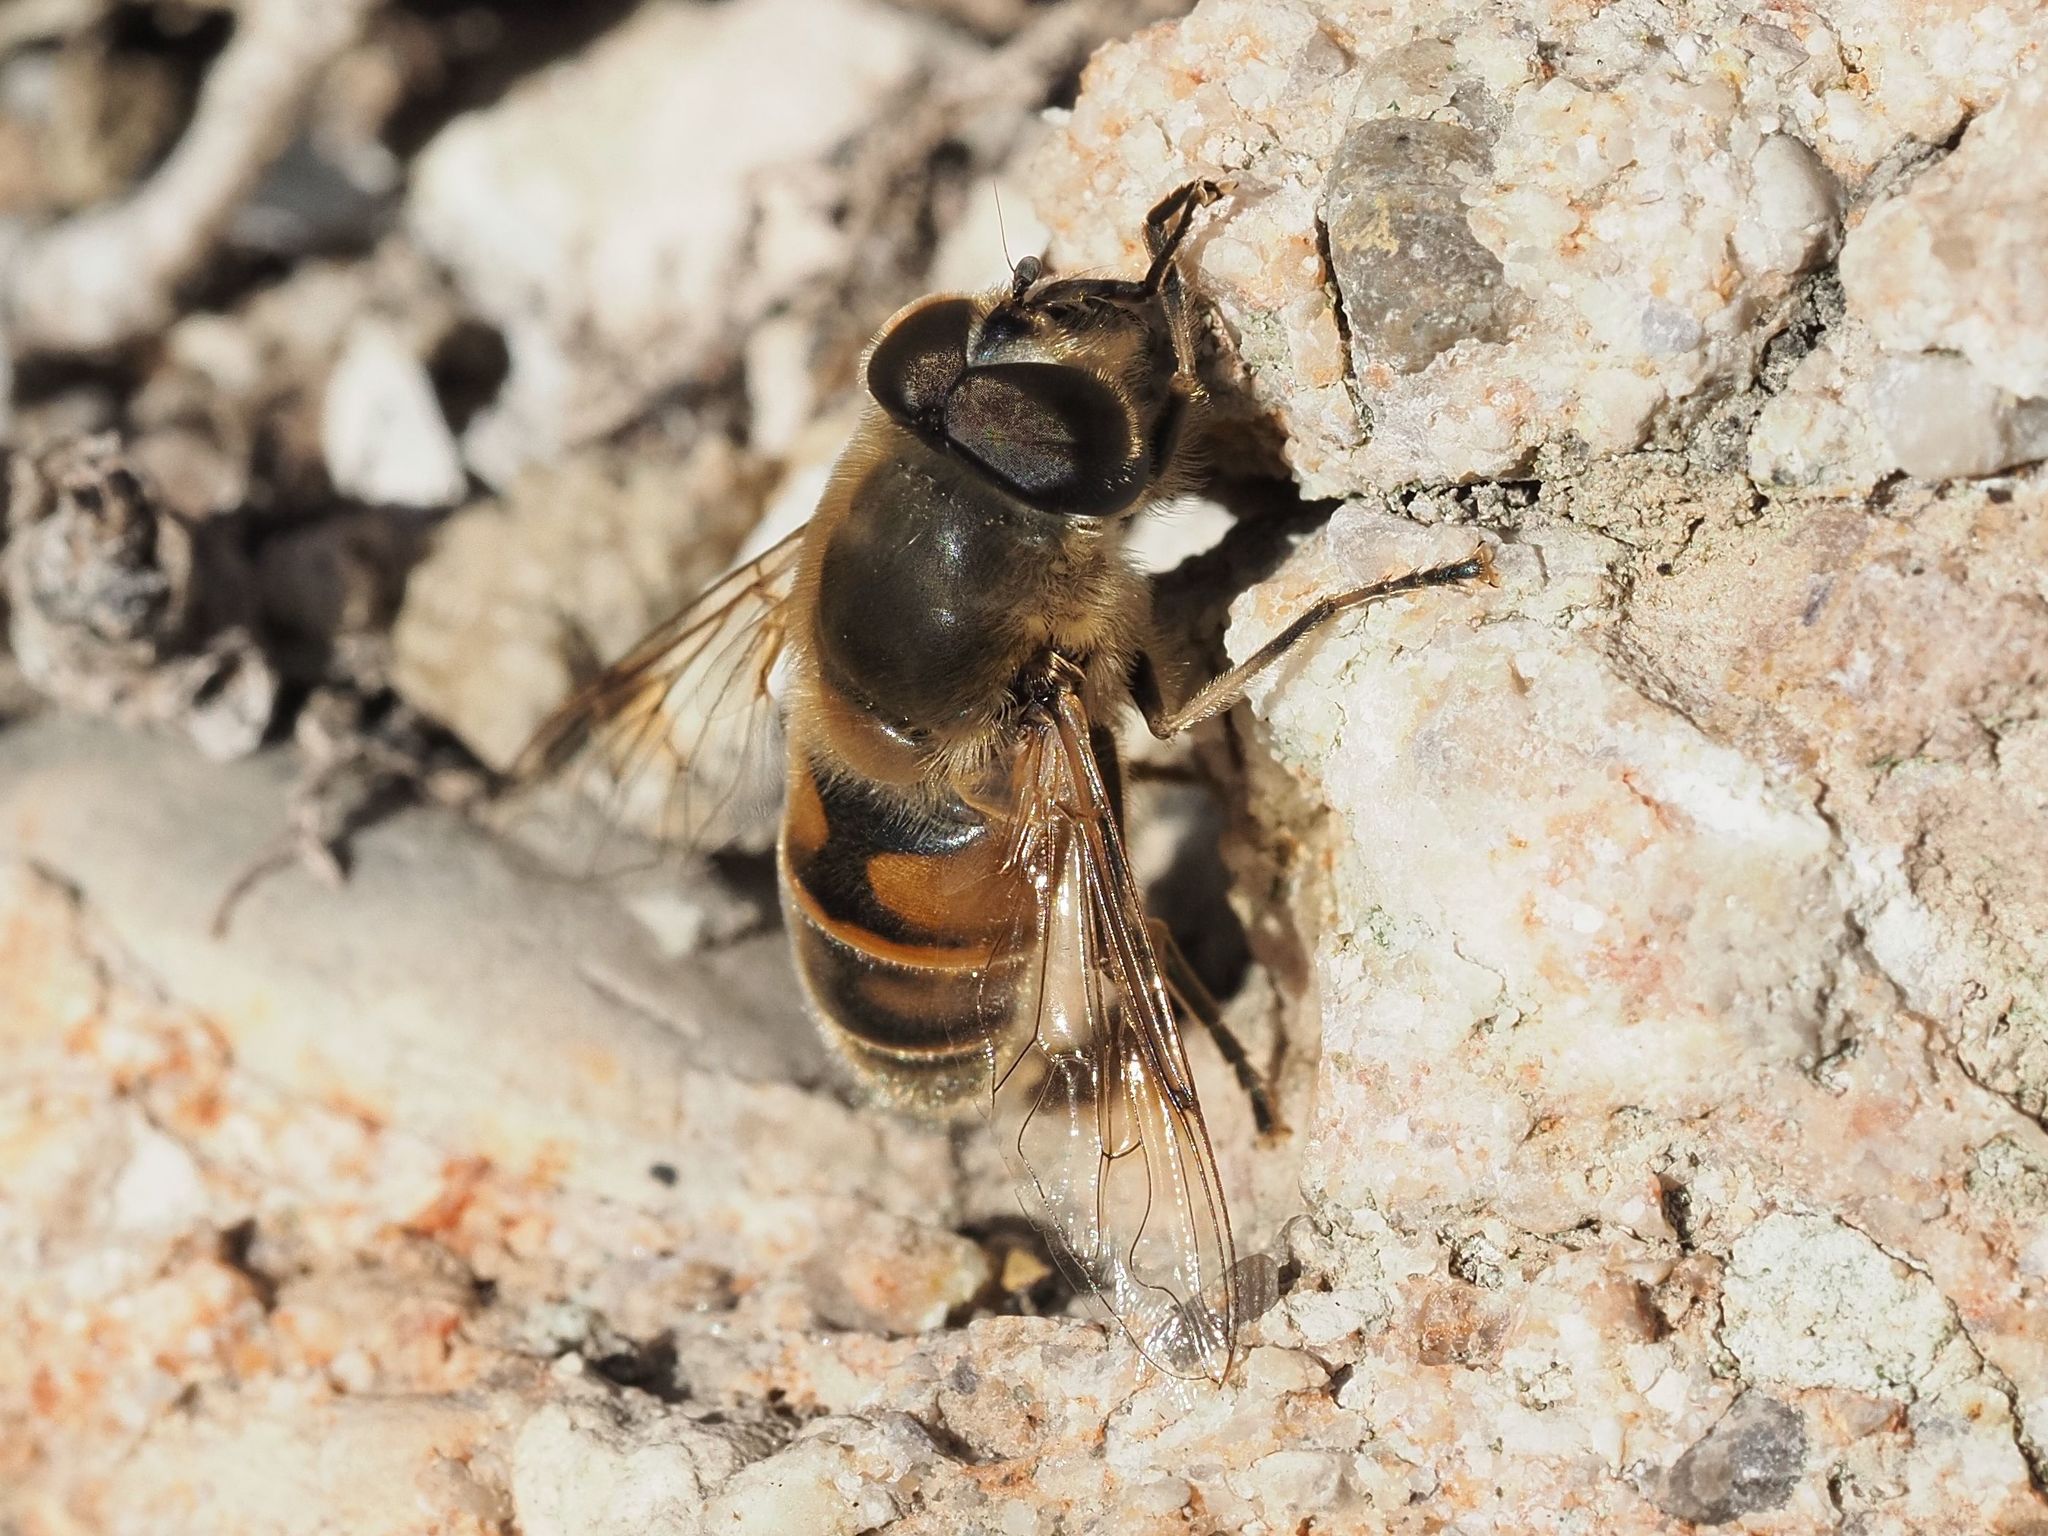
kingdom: Animalia
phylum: Arthropoda
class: Insecta
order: Diptera
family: Syrphidae
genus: Eristalis
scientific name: Eristalis tenax
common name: Drone fly
